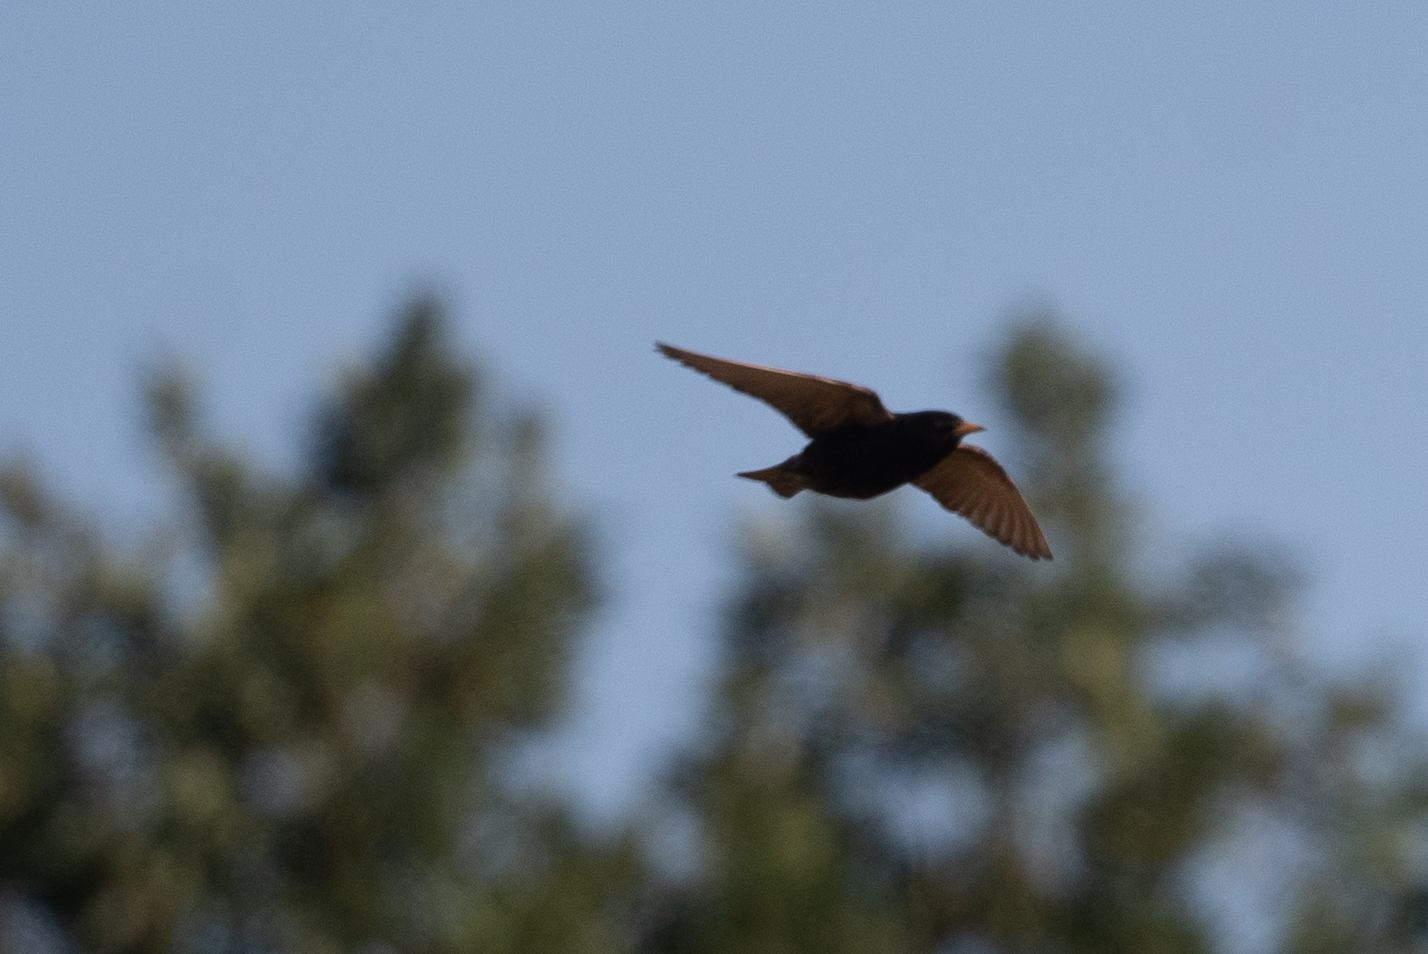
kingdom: Animalia
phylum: Chordata
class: Aves
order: Passeriformes
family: Sturnidae
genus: Sturnus
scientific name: Sturnus vulgaris
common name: Common starling
